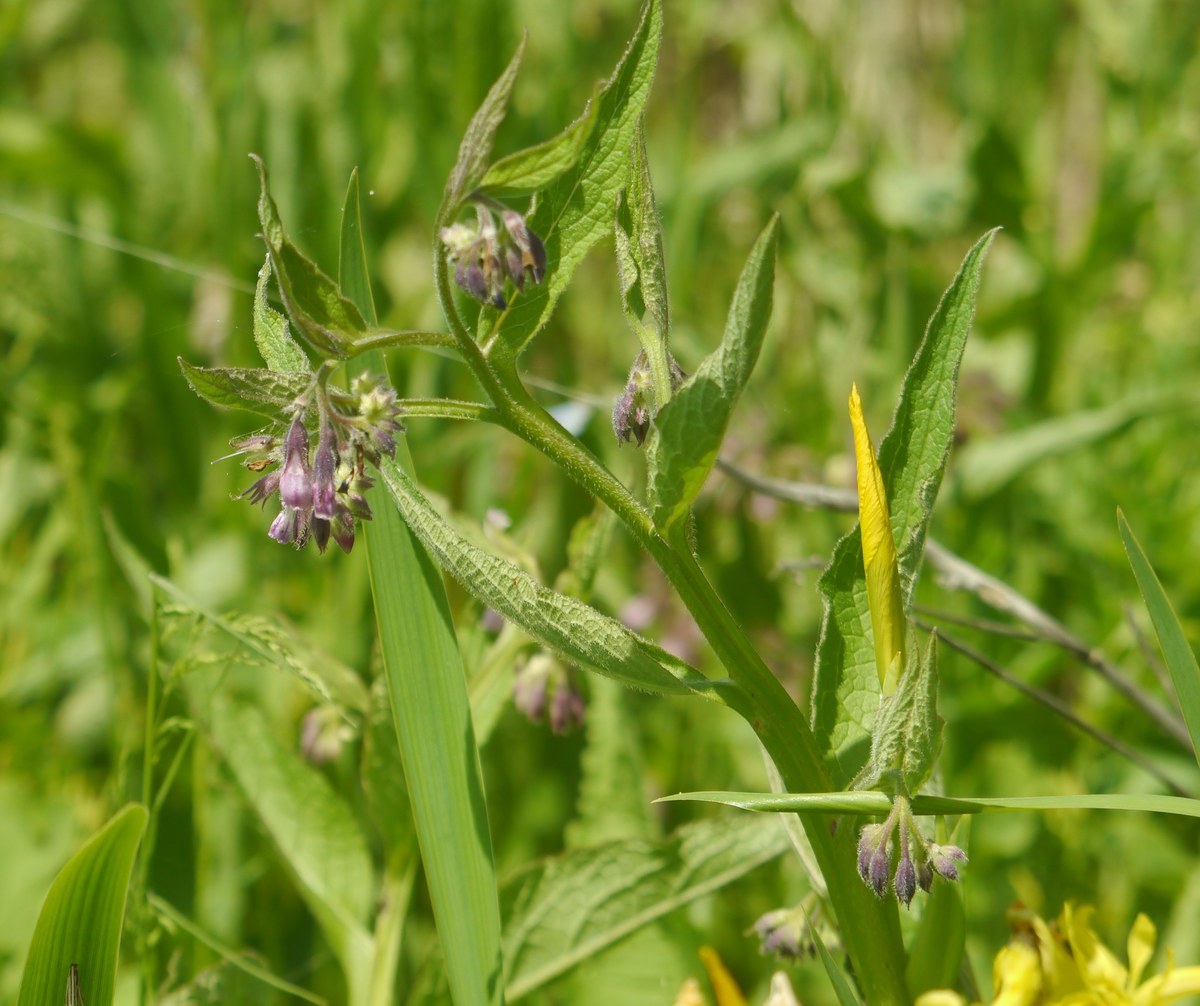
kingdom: Plantae
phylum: Tracheophyta
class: Magnoliopsida
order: Boraginales
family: Boraginaceae
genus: Symphytum
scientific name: Symphytum officinale
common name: Common comfrey
